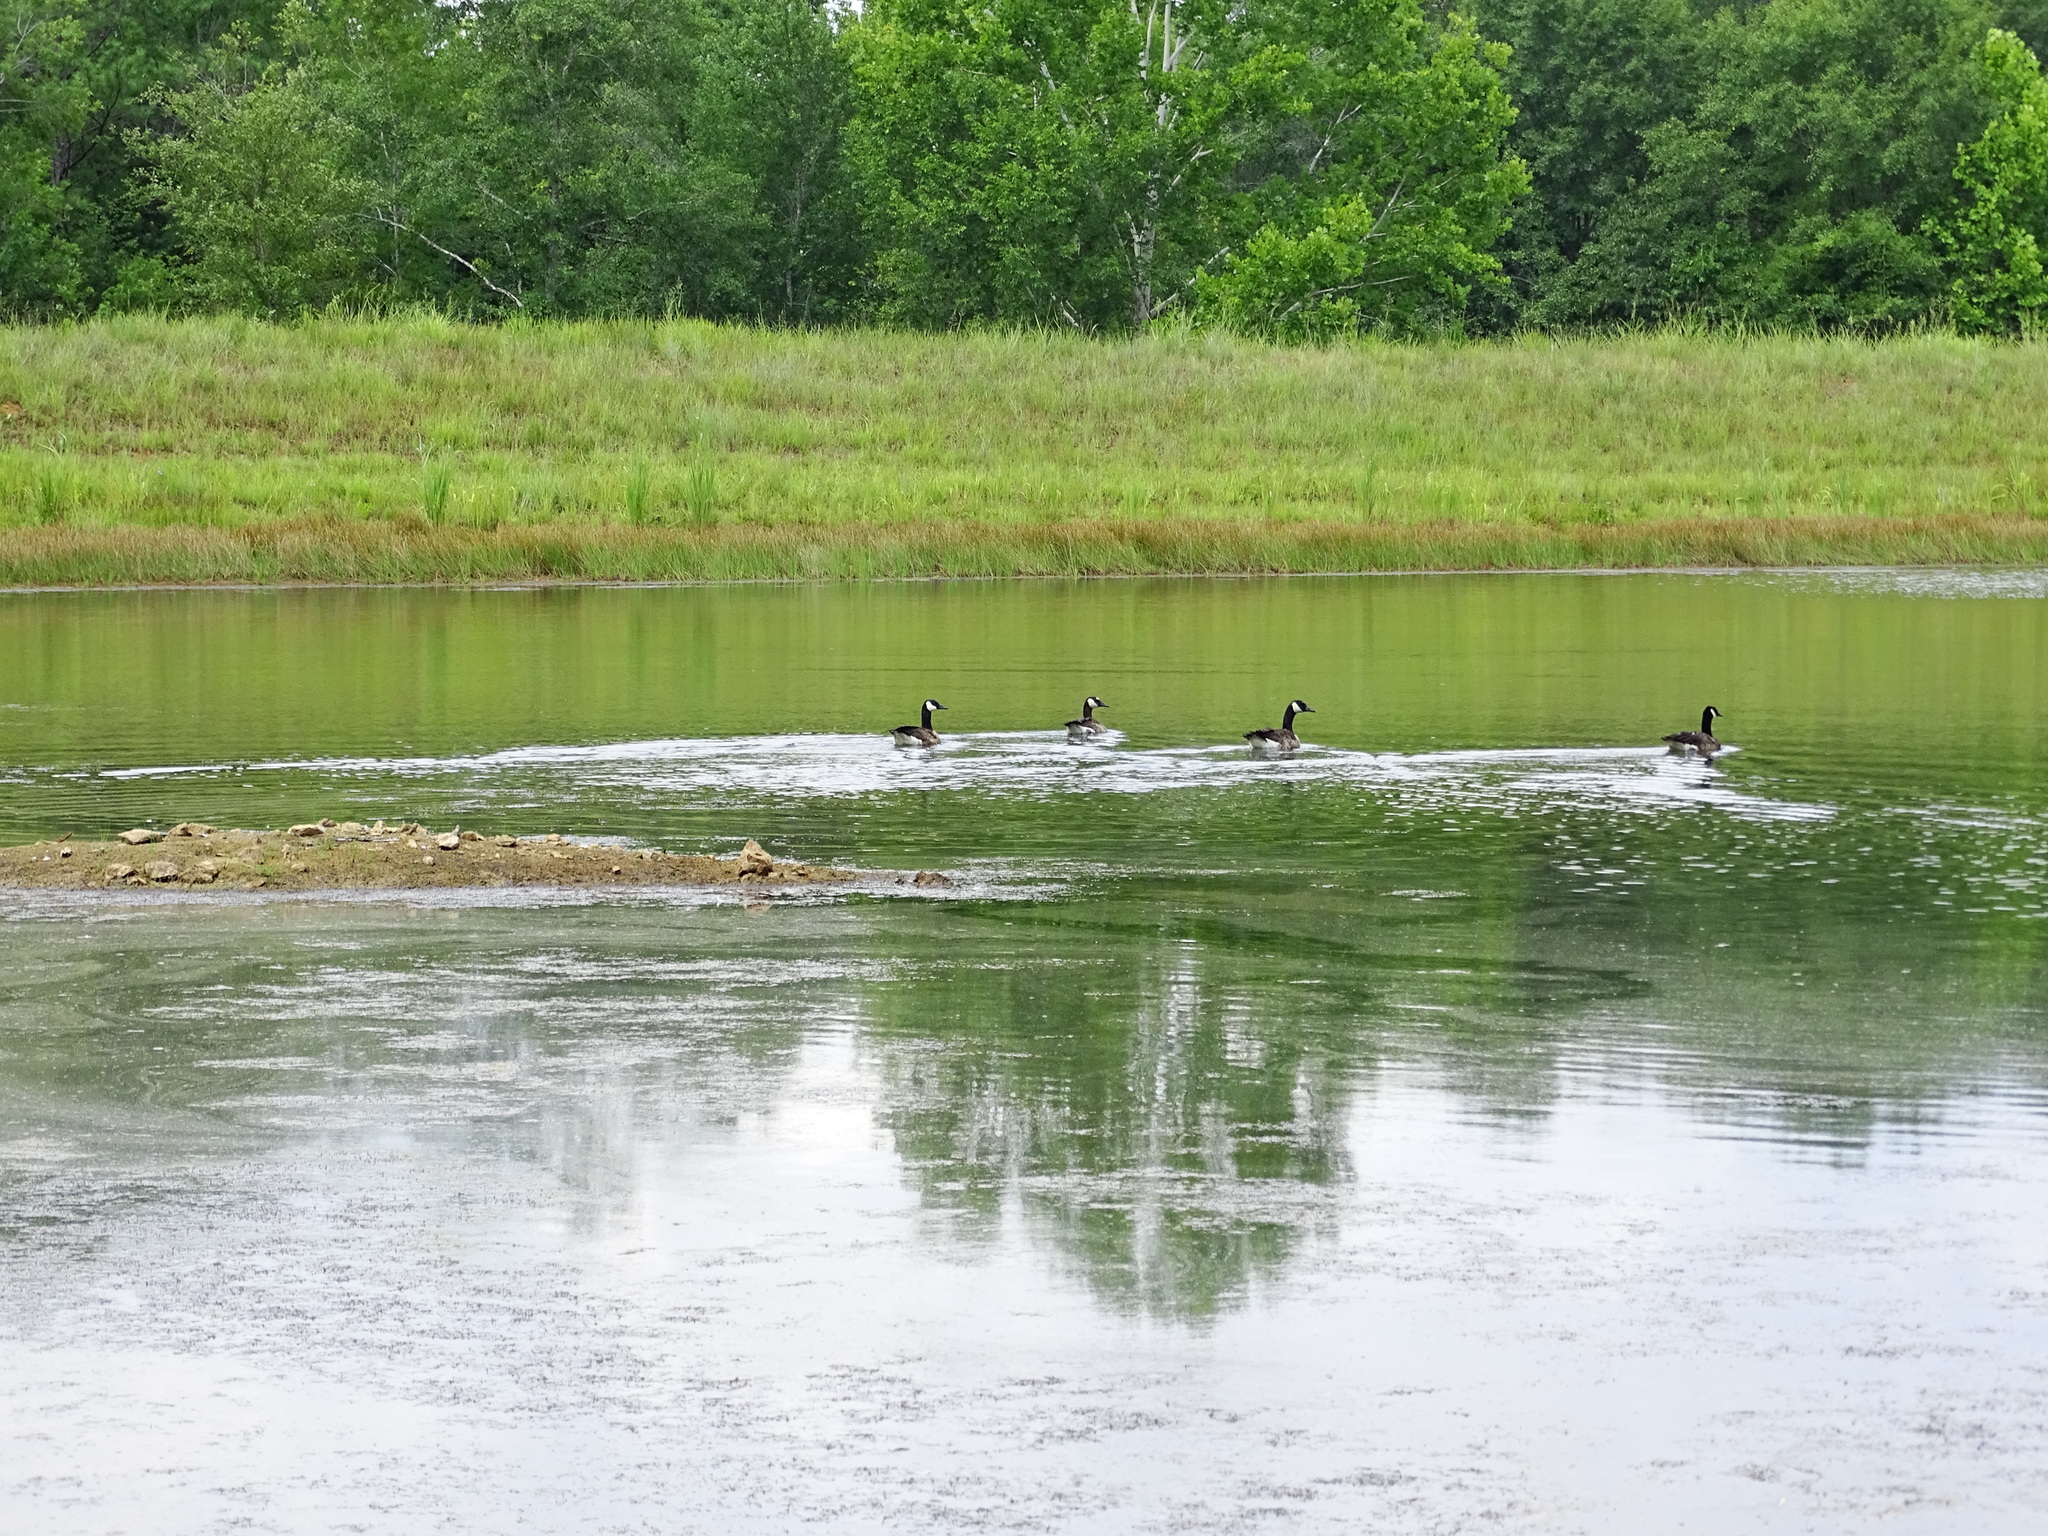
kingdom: Animalia
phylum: Chordata
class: Aves
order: Anseriformes
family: Anatidae
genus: Branta
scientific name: Branta canadensis
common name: Canada goose
